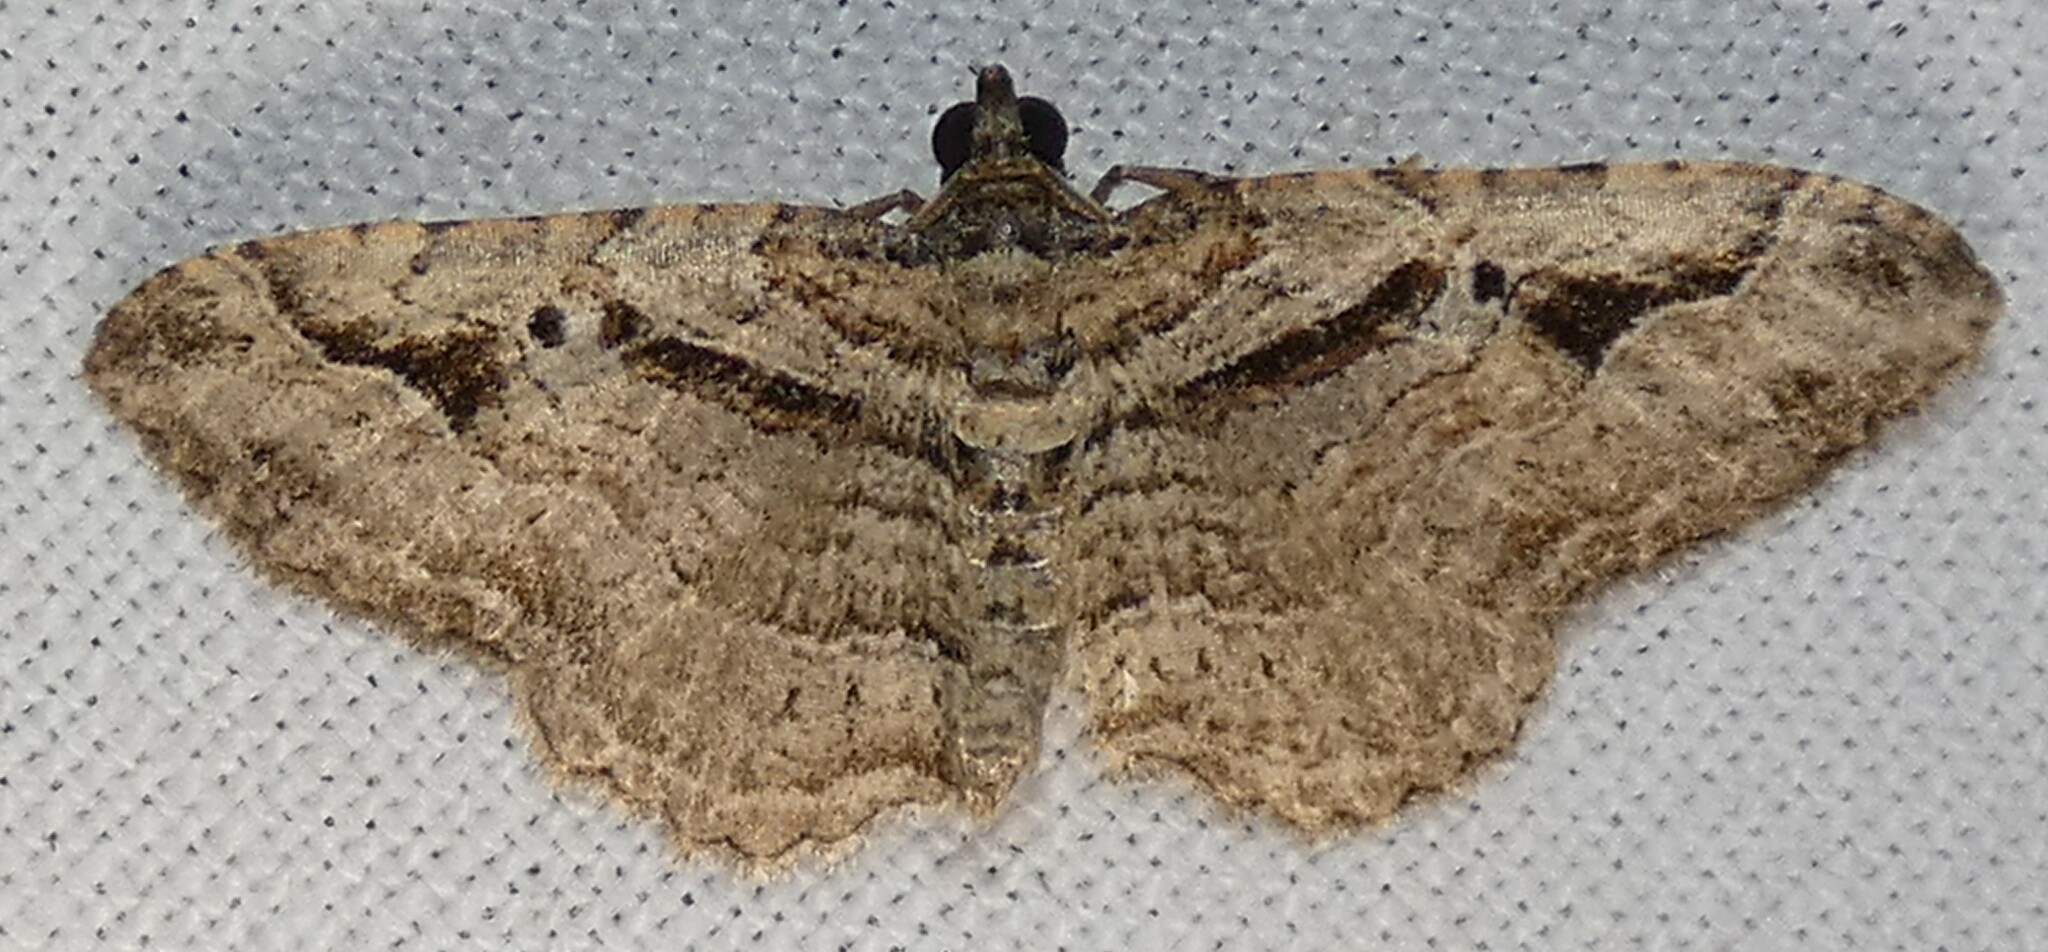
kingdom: Animalia
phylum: Arthropoda
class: Insecta
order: Lepidoptera
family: Geometridae
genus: Costaconvexa
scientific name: Costaconvexa centrostrigaria
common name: Bent-line carpet
